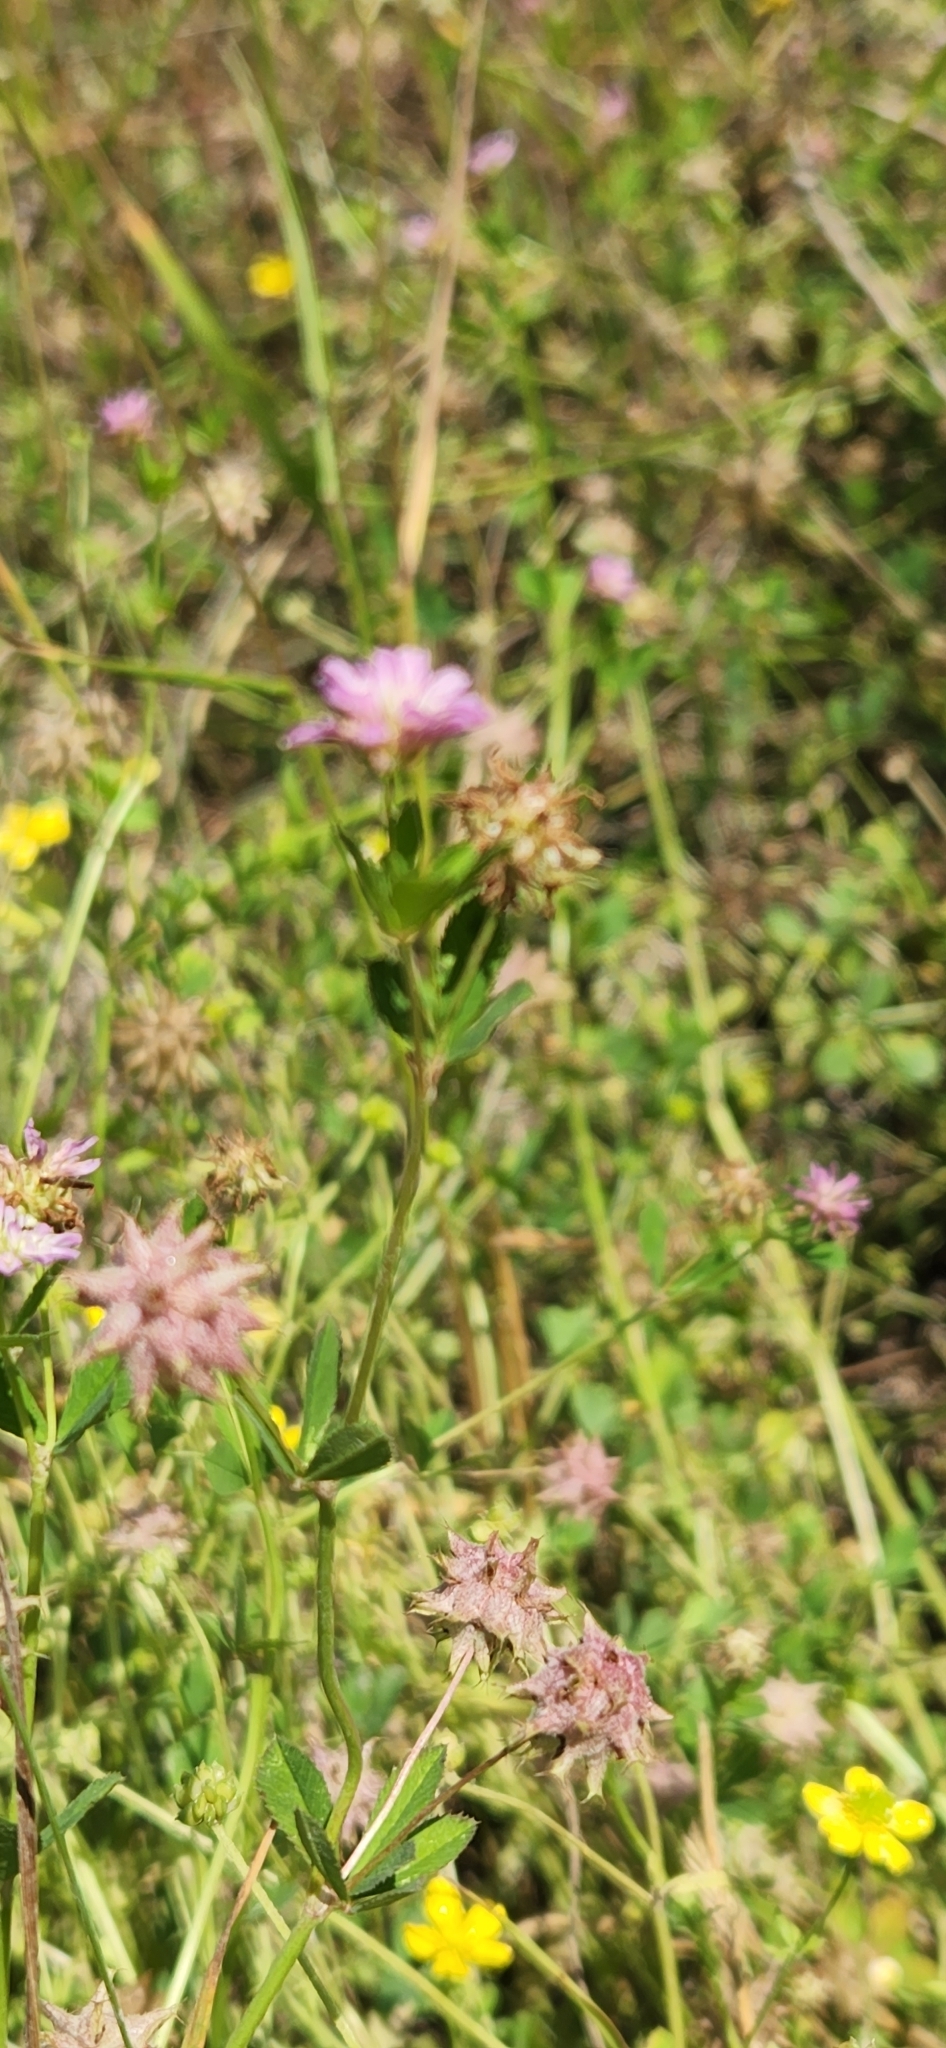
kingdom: Plantae
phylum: Tracheophyta
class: Magnoliopsida
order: Fabales
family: Fabaceae
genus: Trifolium
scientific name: Trifolium resupinatum
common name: Reversed clover
